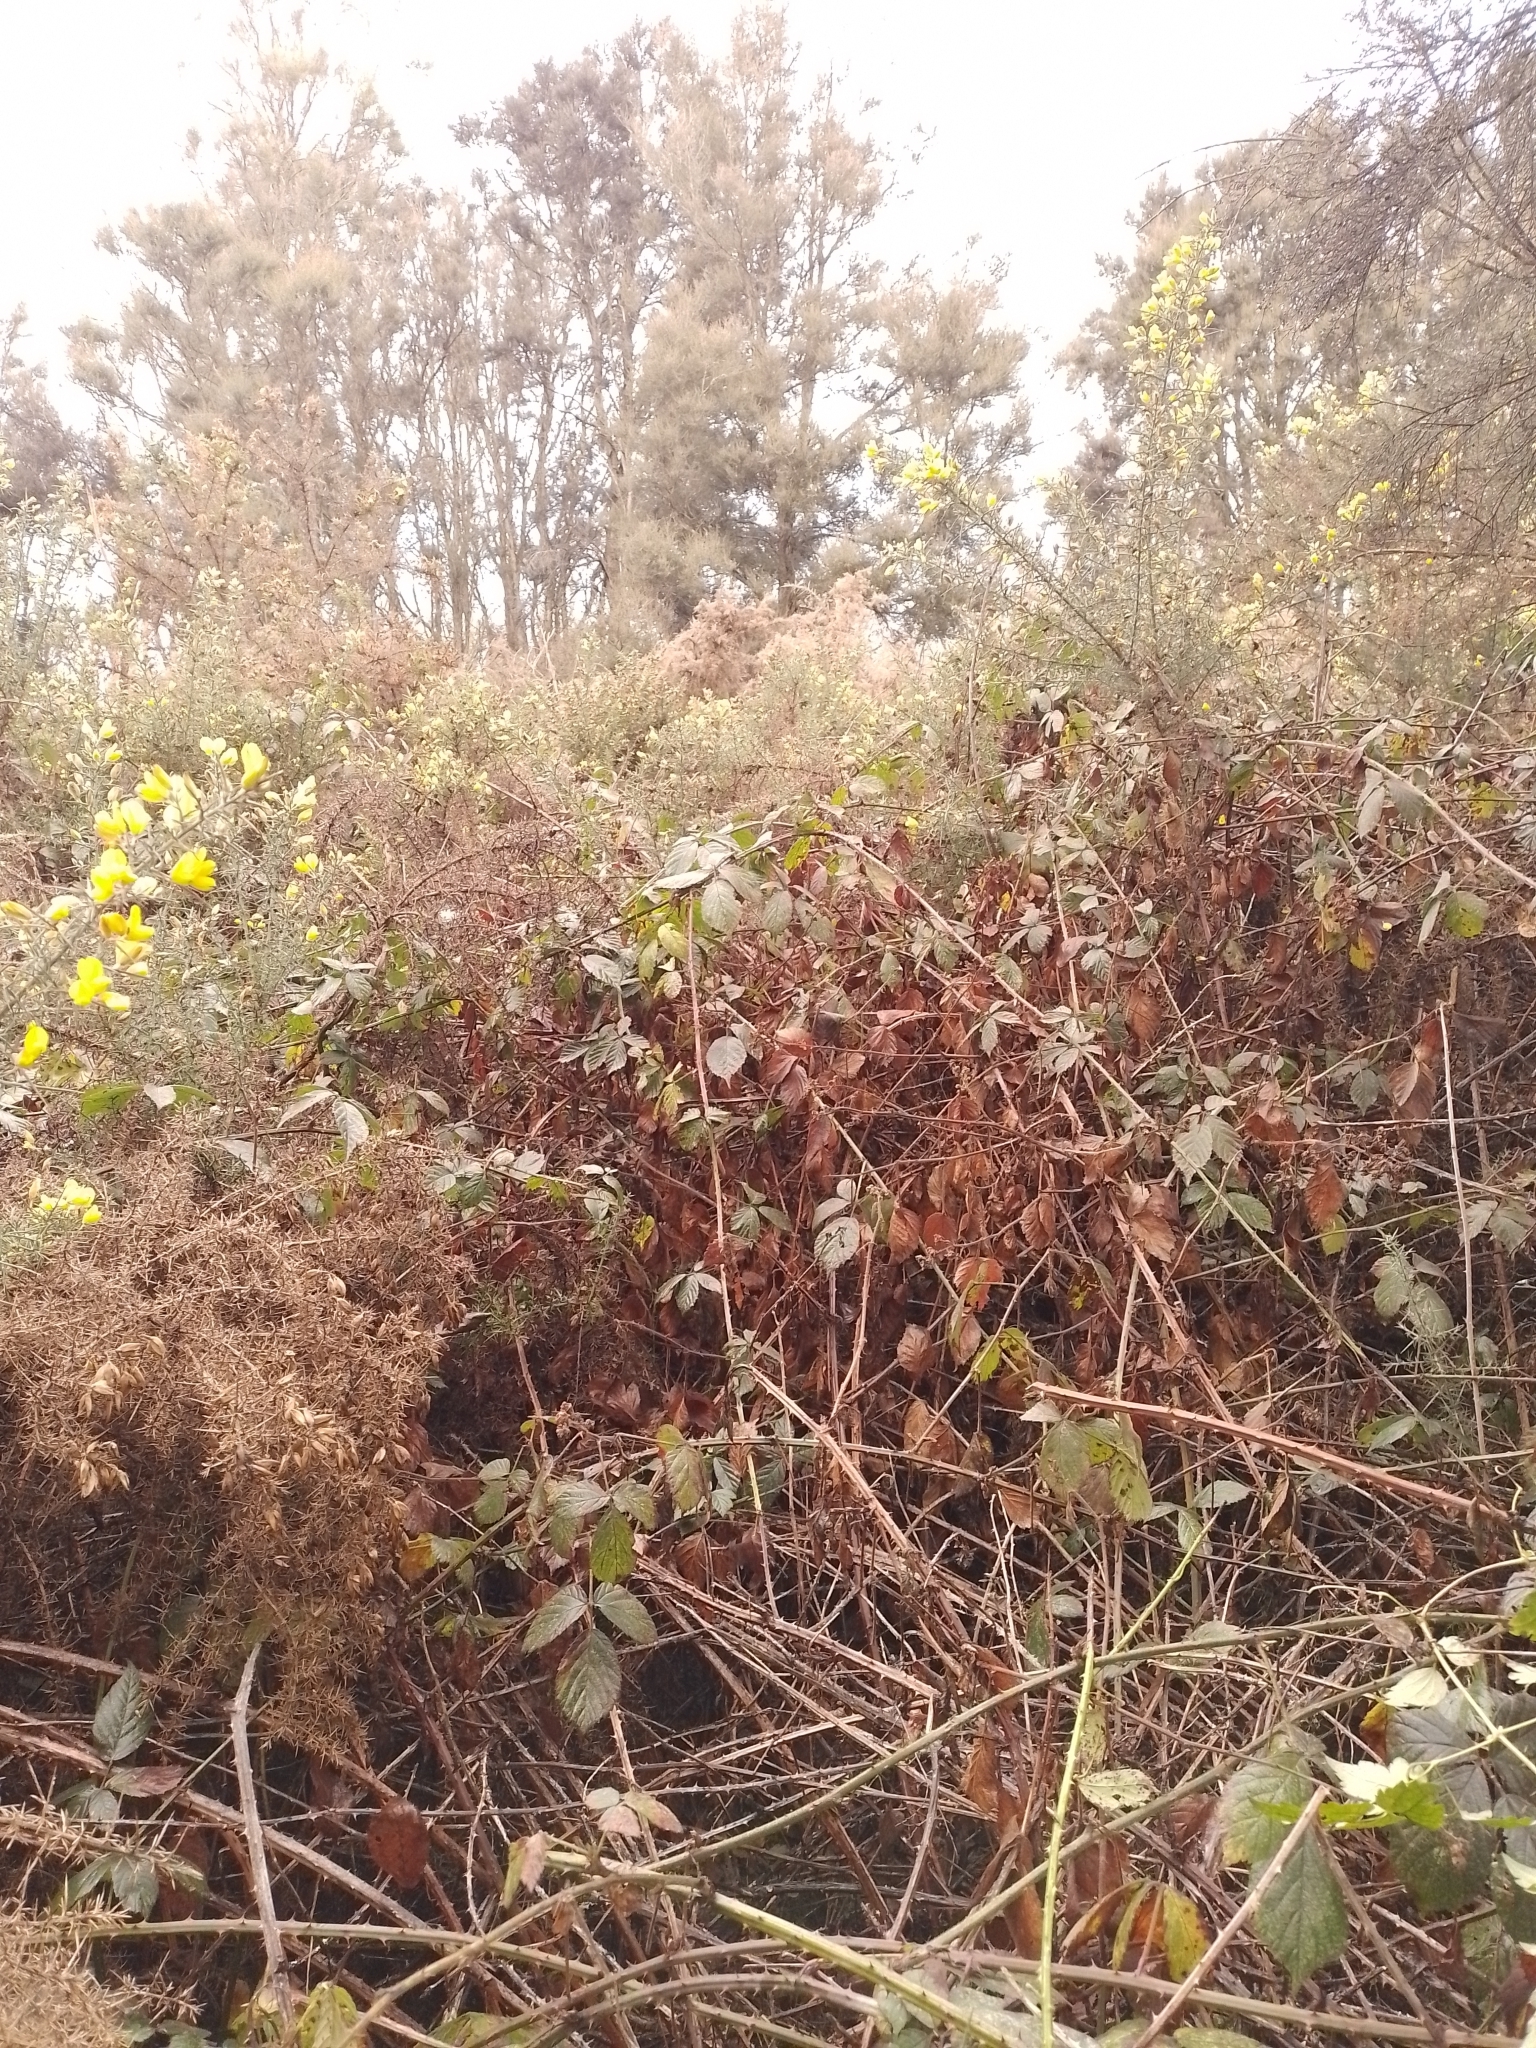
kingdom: Plantae
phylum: Tracheophyta
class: Magnoliopsida
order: Rosales
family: Rosaceae
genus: Rubus
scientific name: Rubus amplificatus
